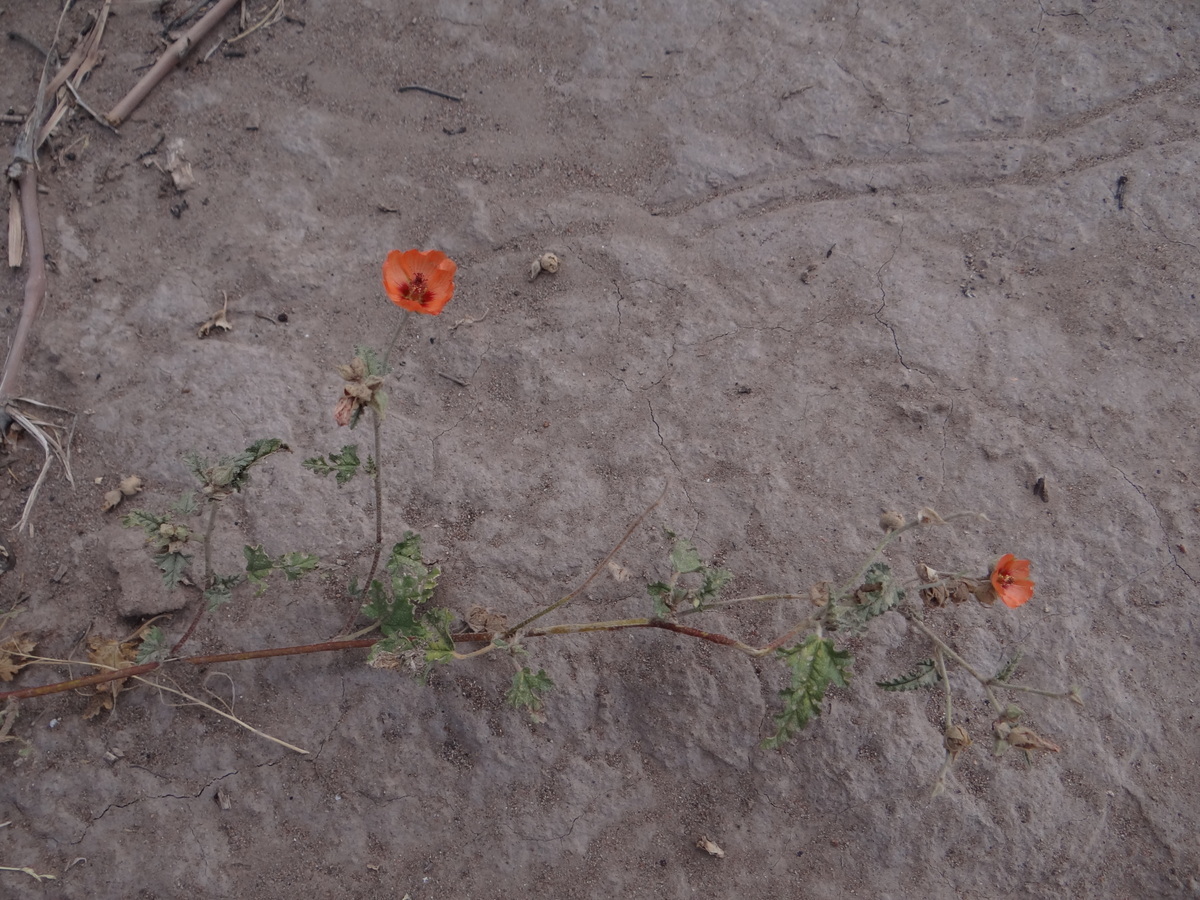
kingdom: Plantae
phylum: Tracheophyta
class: Magnoliopsida
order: Malvales
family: Malvaceae
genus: Sphaeralcea
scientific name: Sphaeralcea miniata
